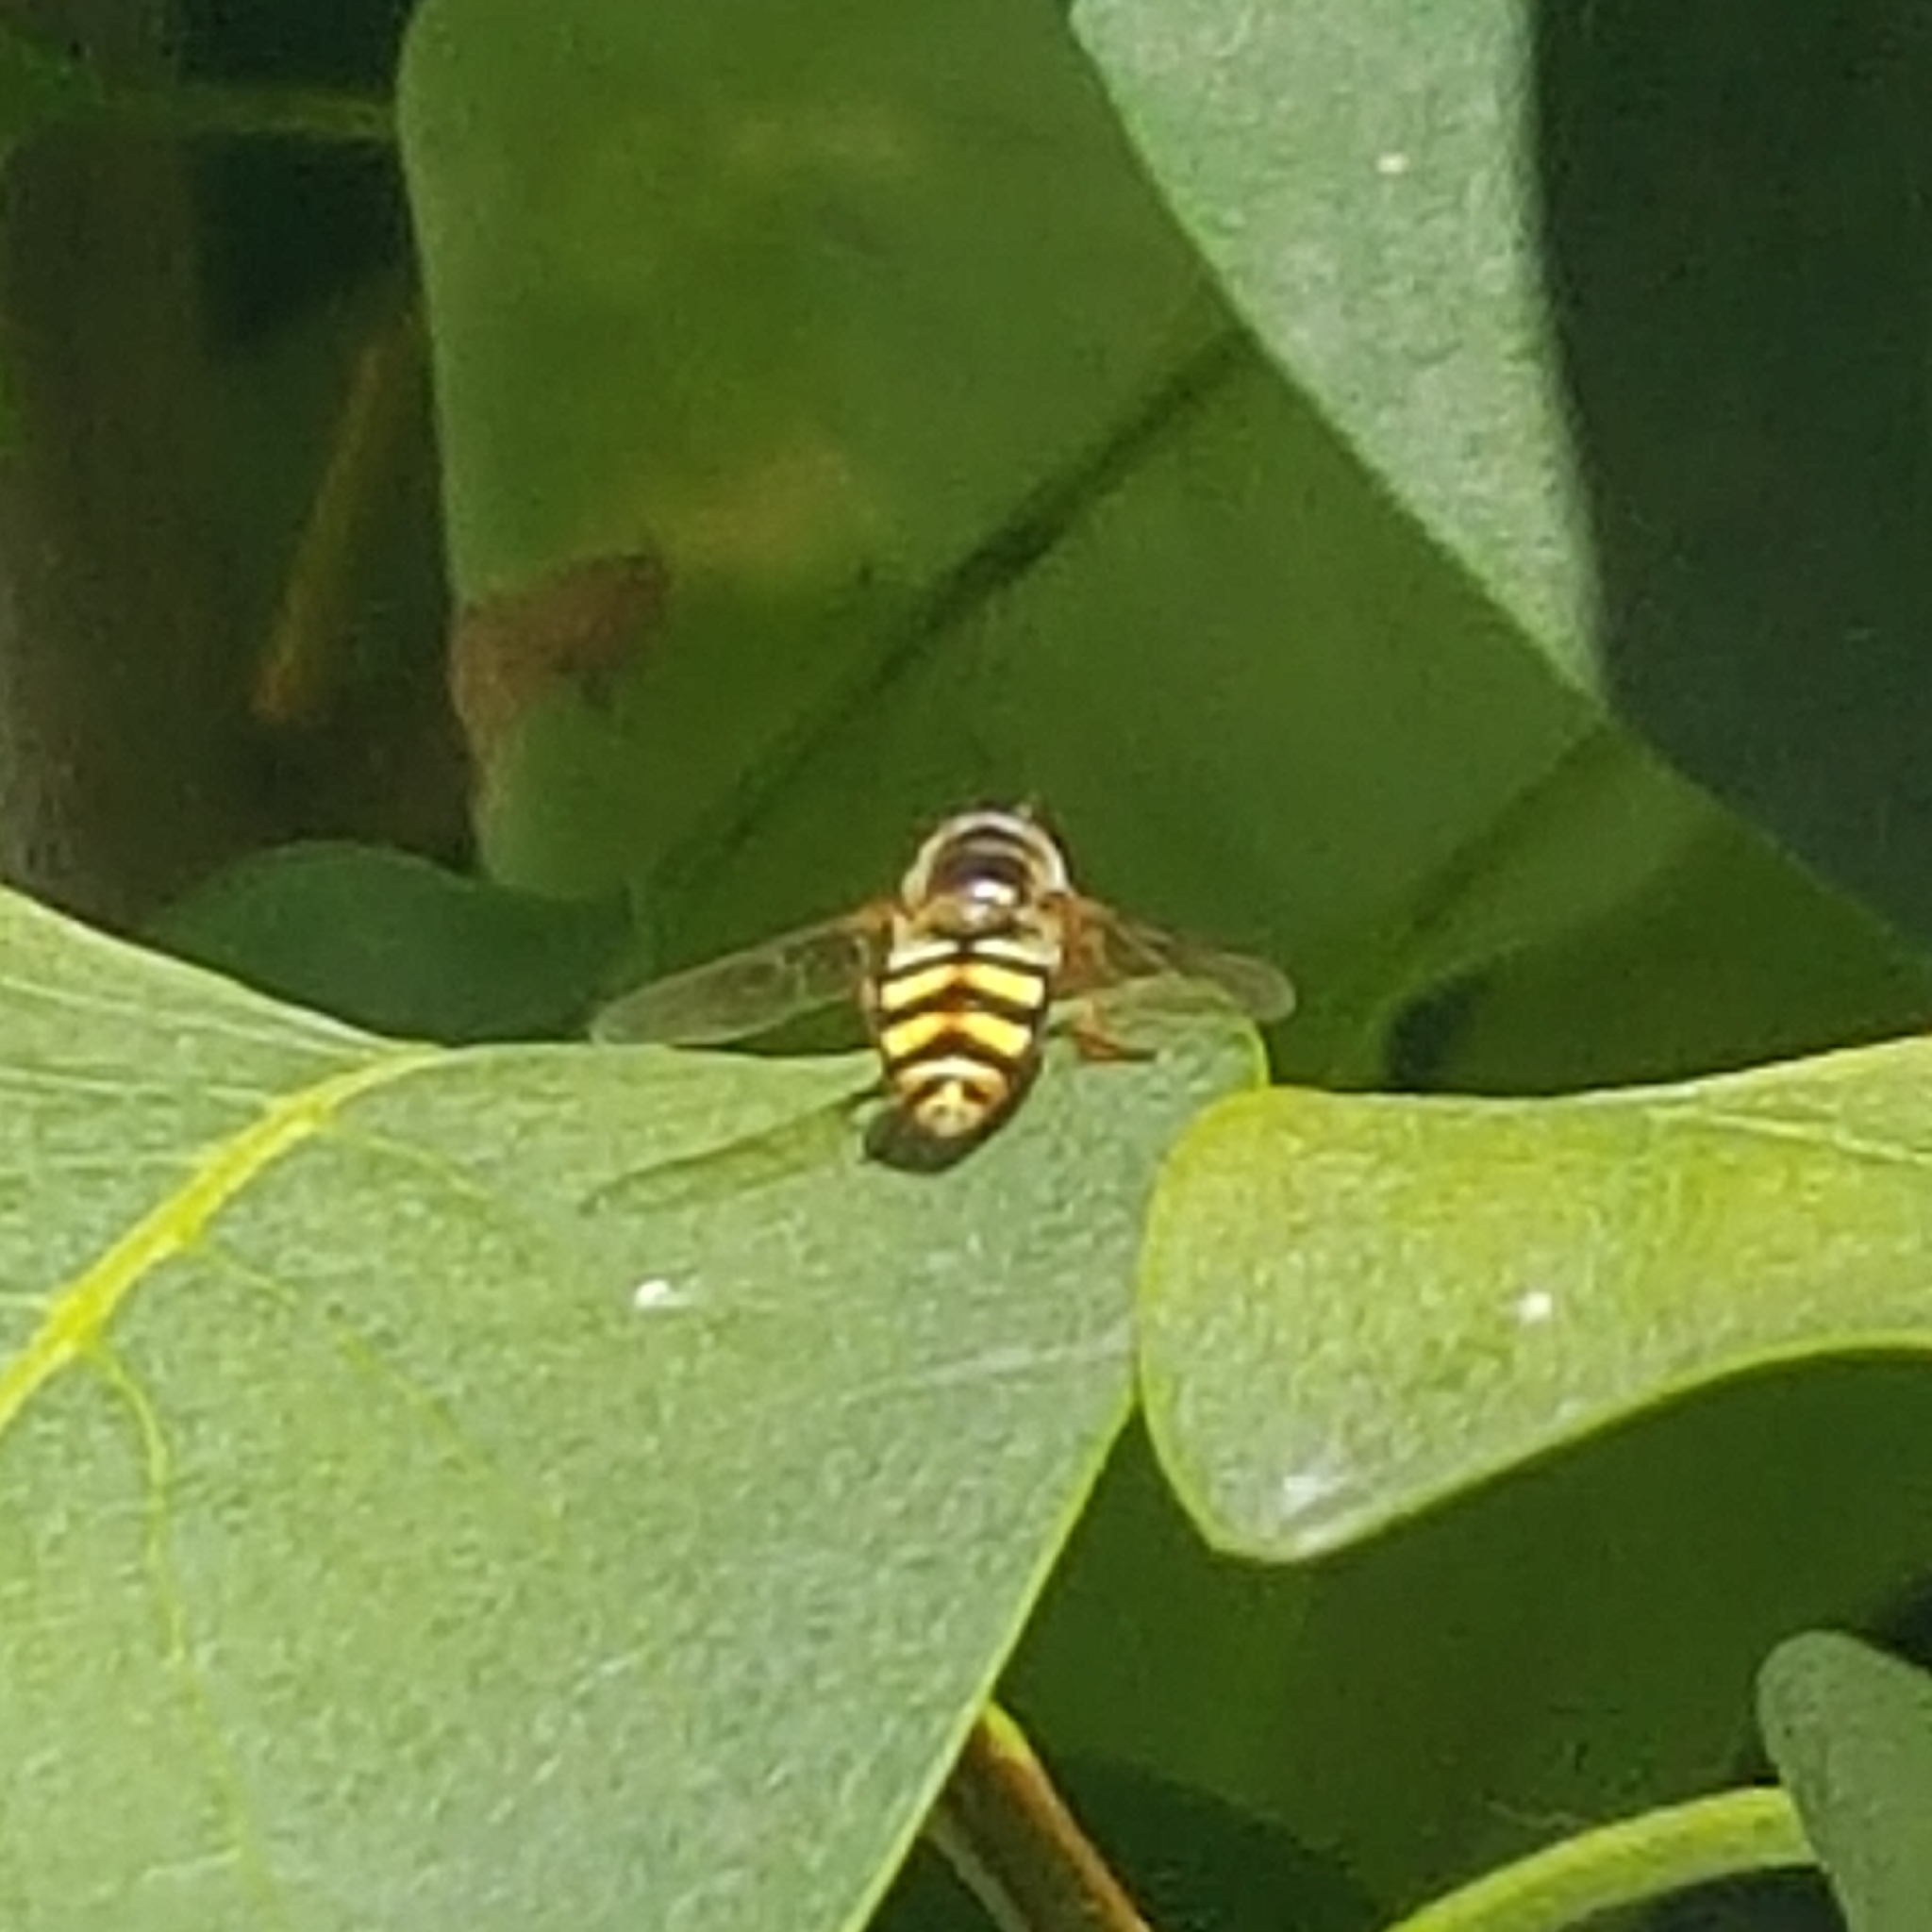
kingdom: Animalia
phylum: Arthropoda
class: Insecta
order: Diptera
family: Syrphidae
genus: Eupeodes
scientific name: Eupeodes fumipennis
